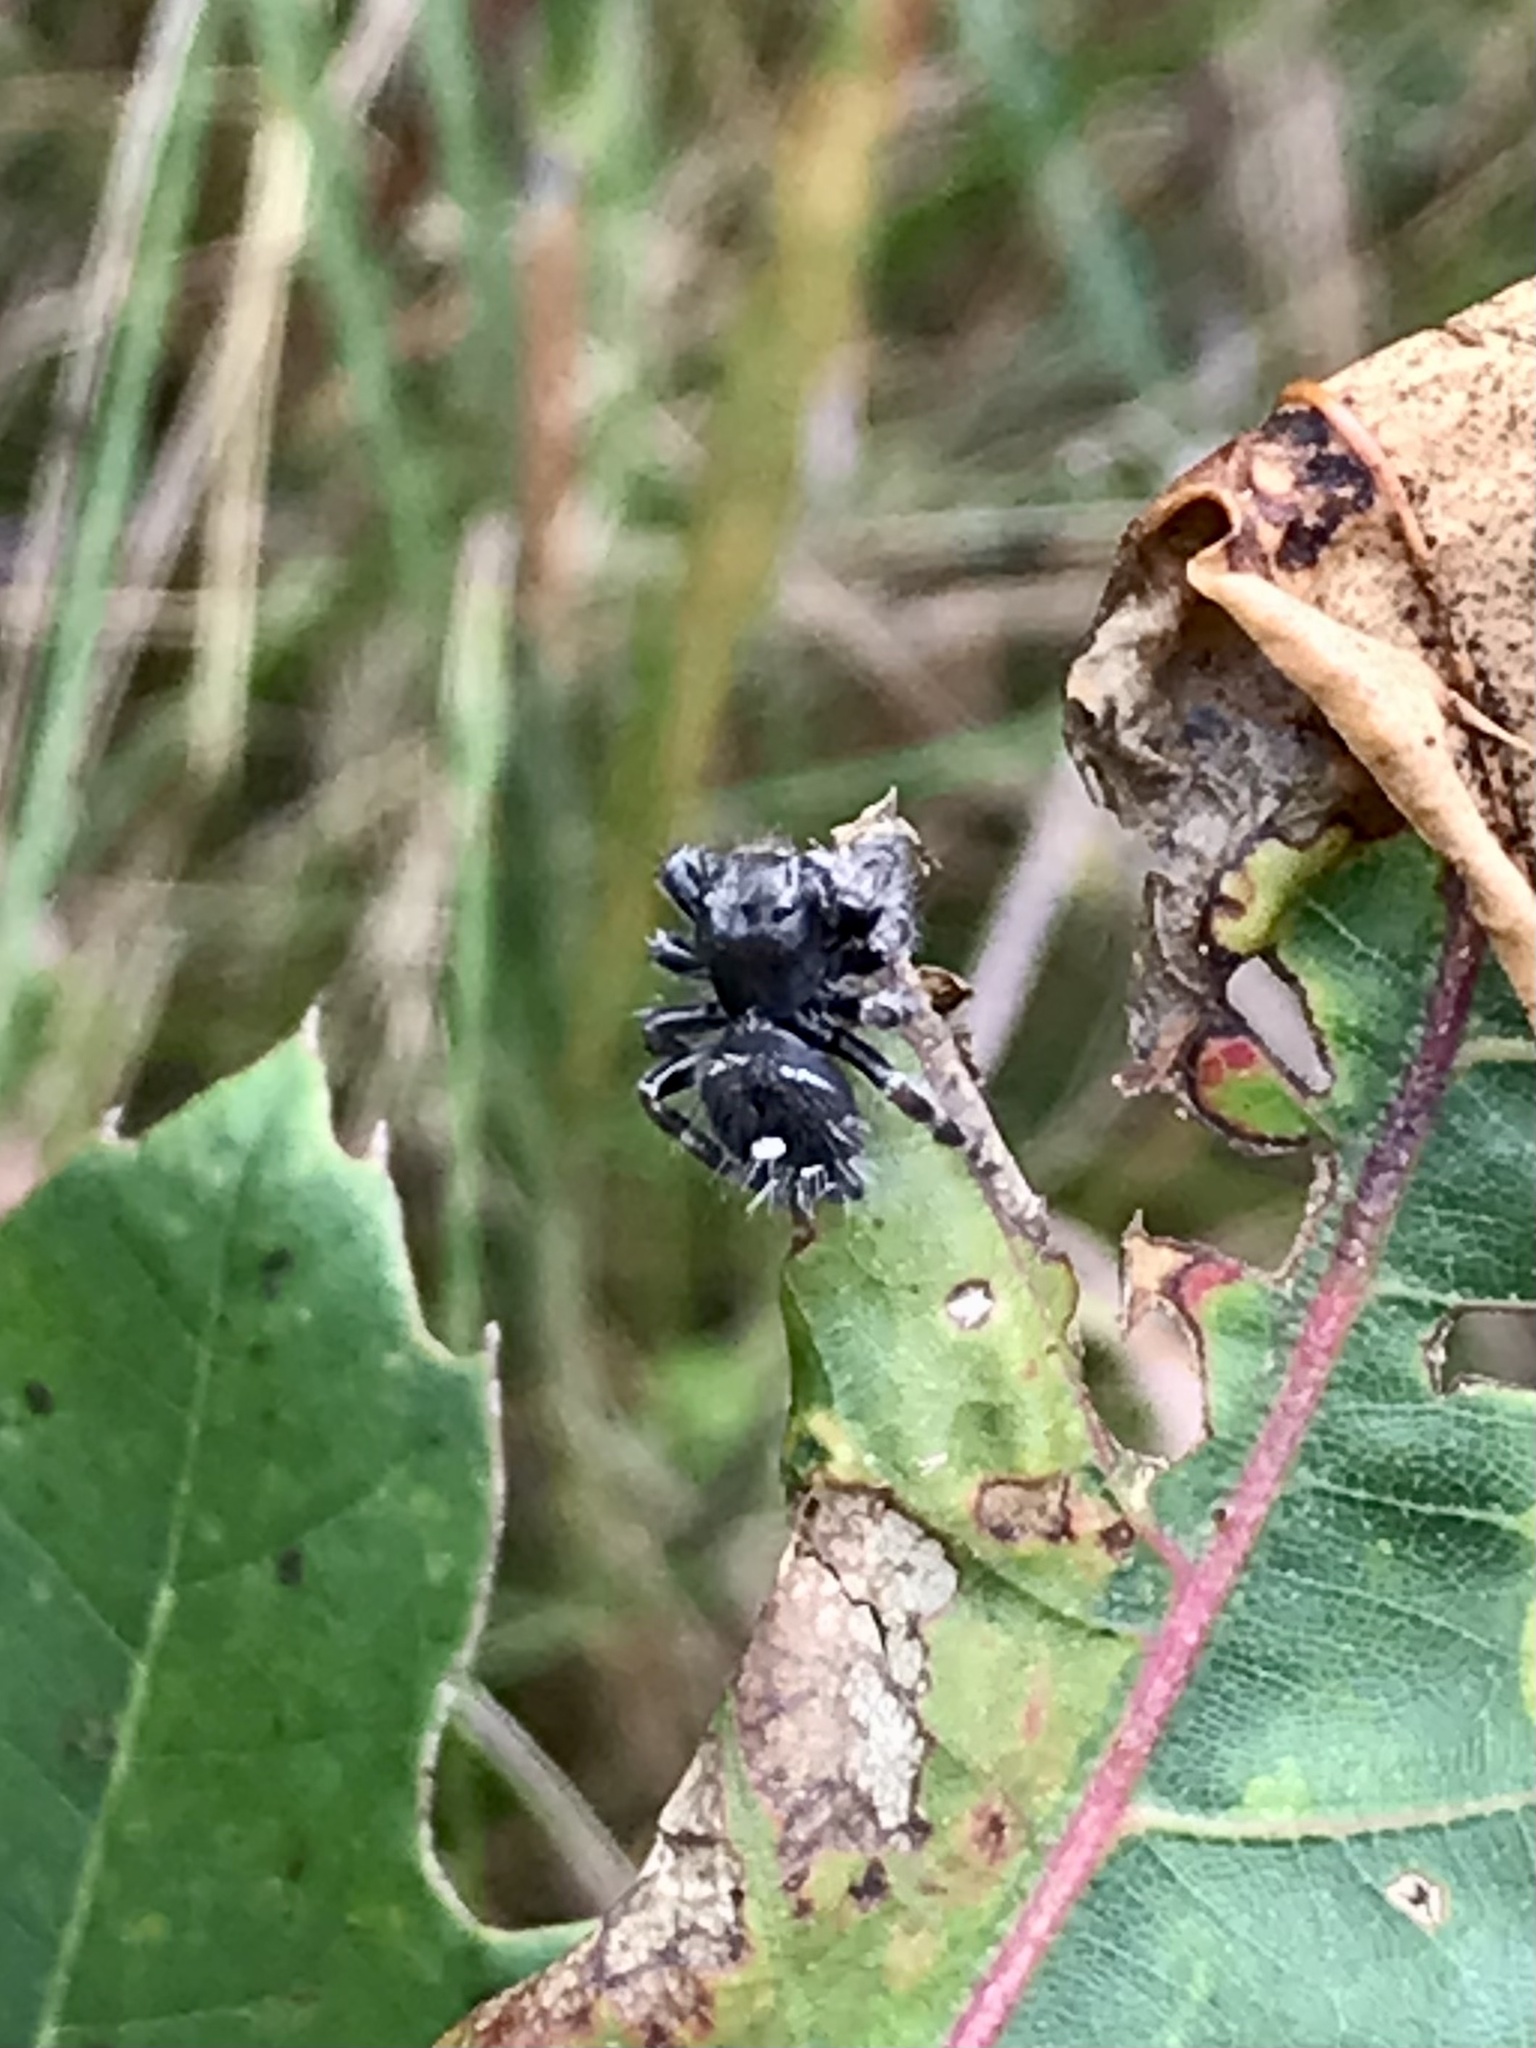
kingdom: Animalia
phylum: Arthropoda
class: Arachnida
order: Araneae
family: Salticidae
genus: Phidippus
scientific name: Phidippus audax
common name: Bold jumper
